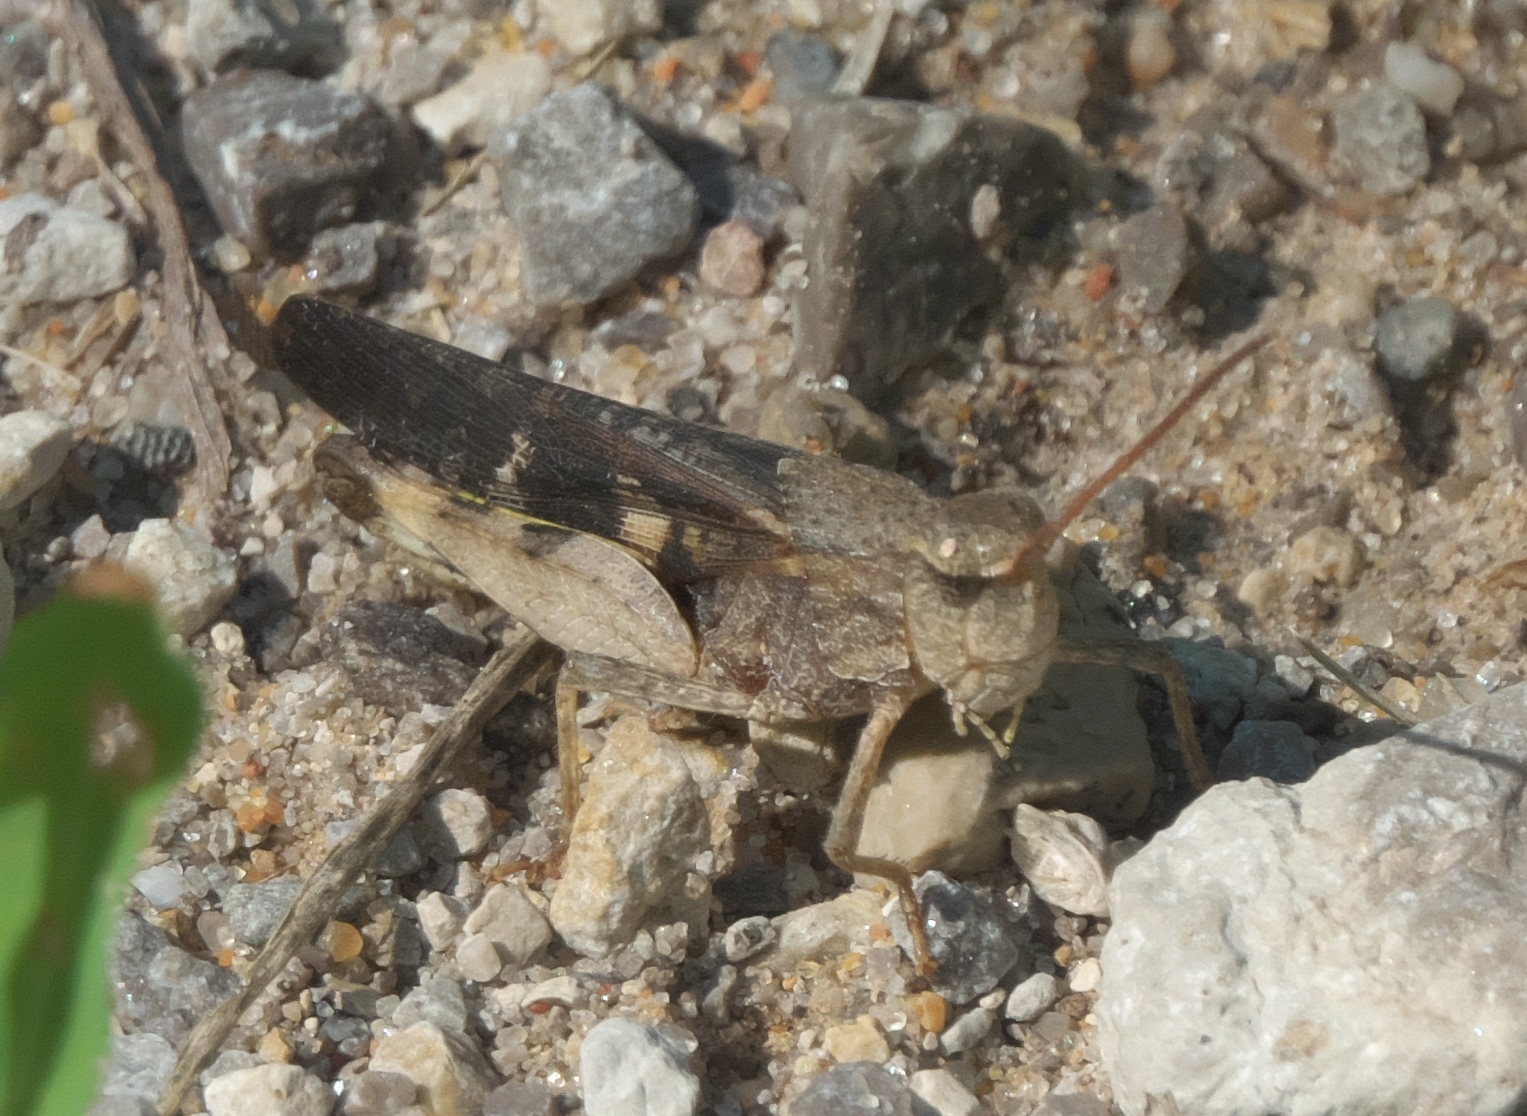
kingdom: Animalia
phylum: Arthropoda
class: Insecta
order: Orthoptera
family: Acrididae
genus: Chortophaga
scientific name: Chortophaga viridifasciata
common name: Green-striped grasshopper
